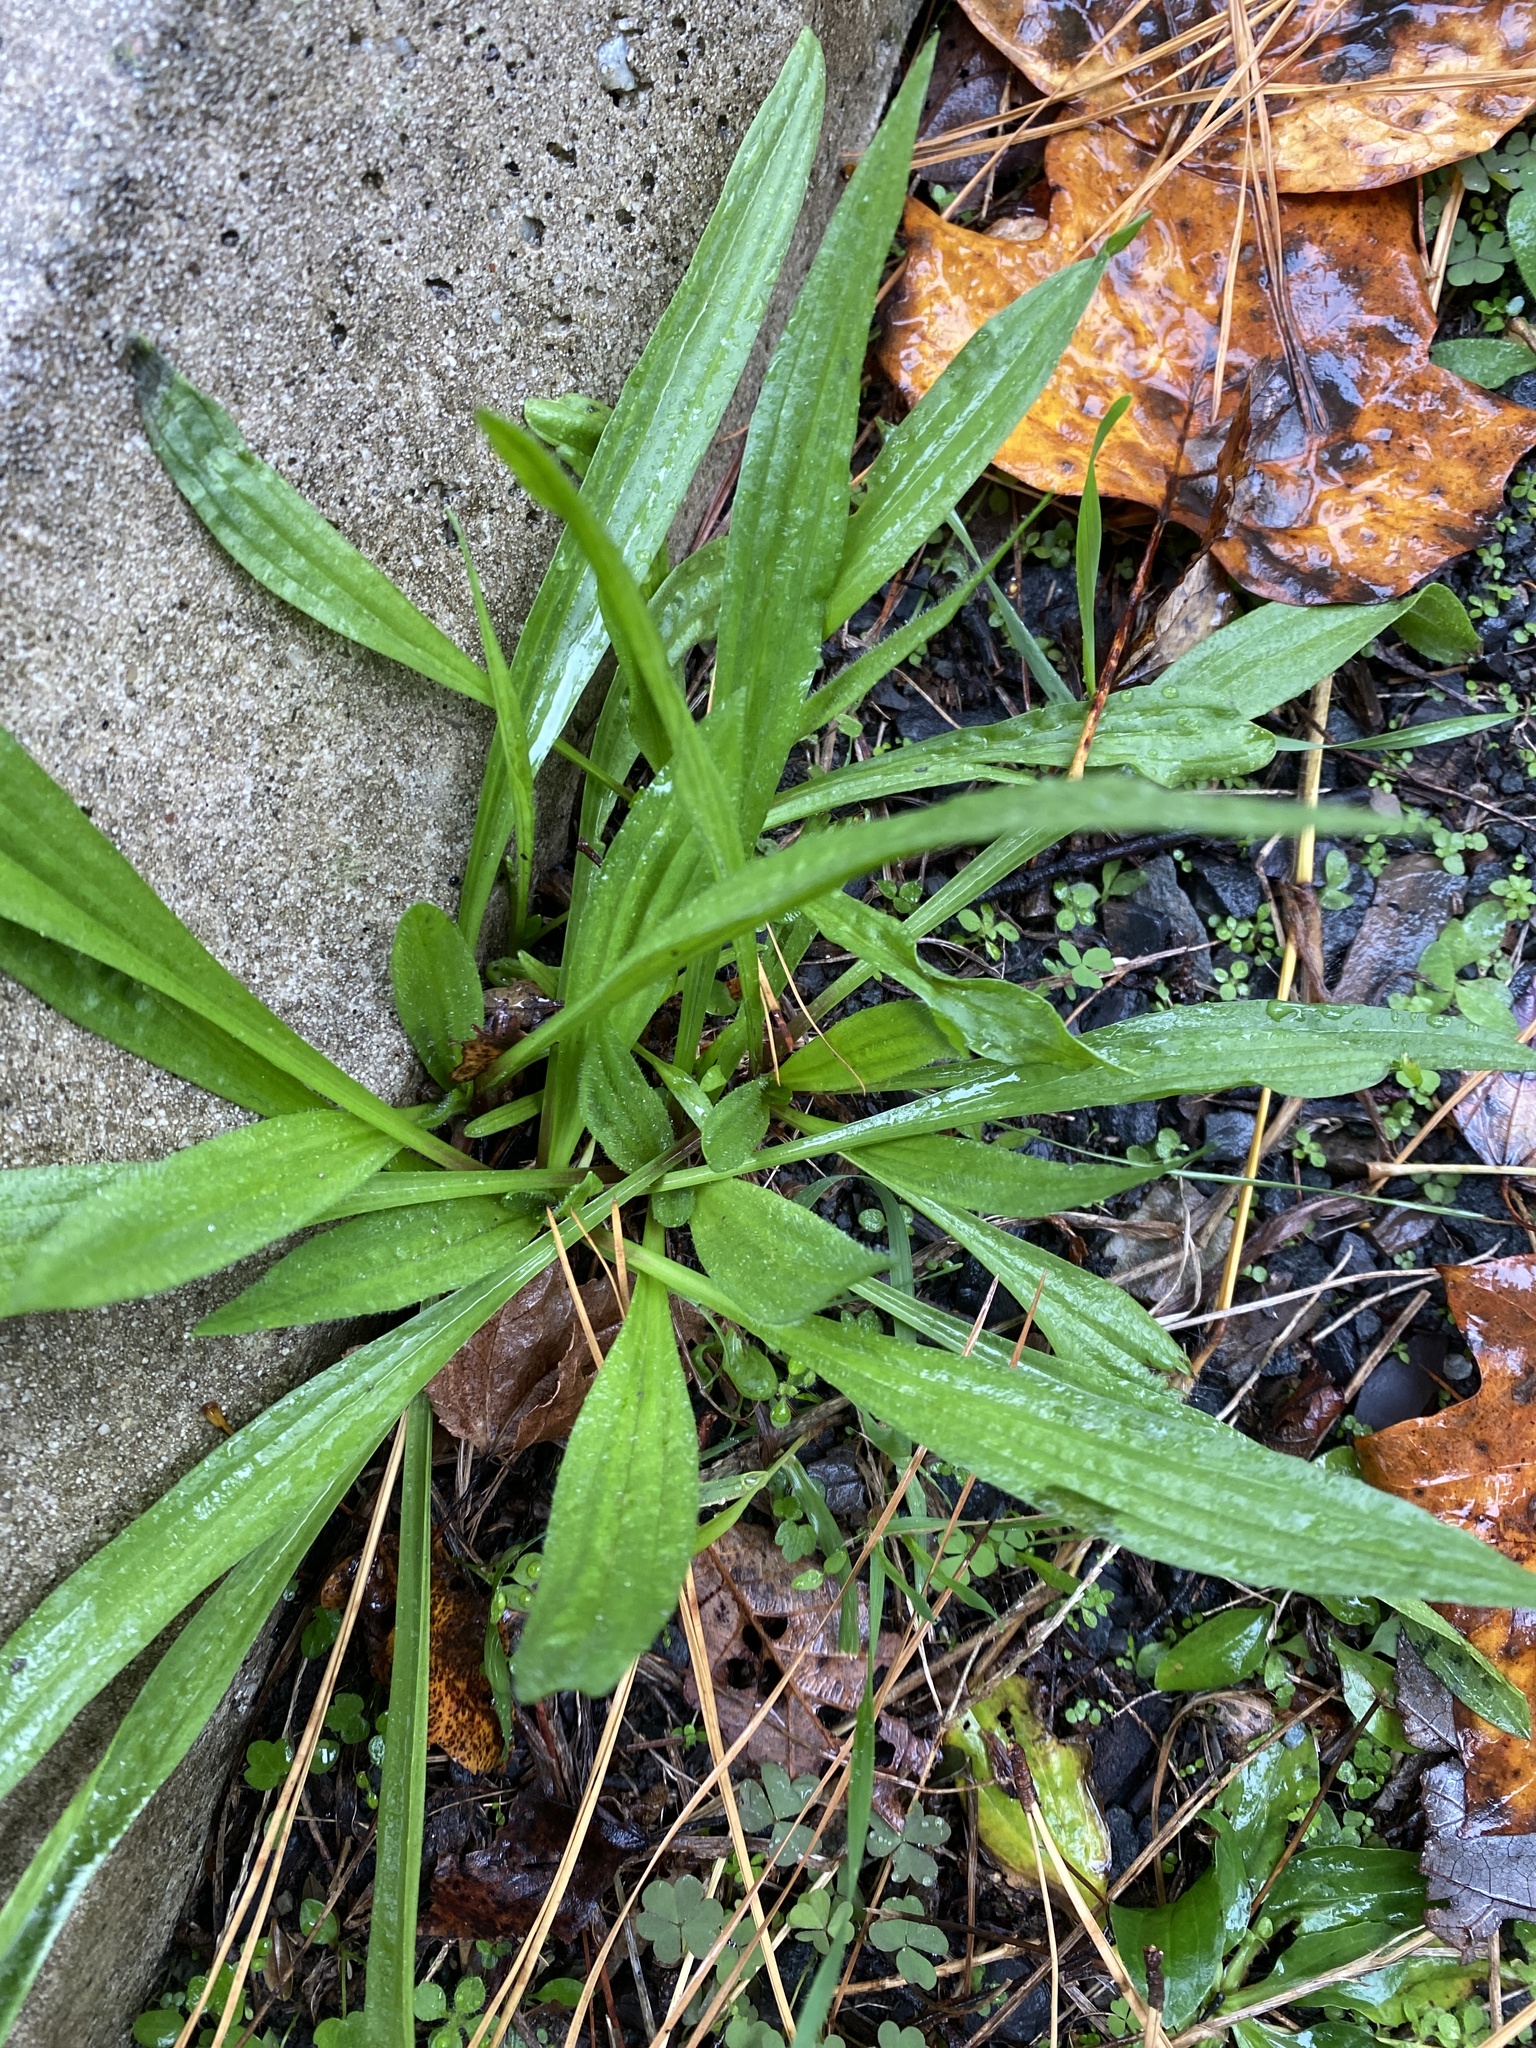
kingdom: Plantae
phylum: Tracheophyta
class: Magnoliopsida
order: Lamiales
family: Plantaginaceae
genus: Plantago
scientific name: Plantago lanceolata
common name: Ribwort plantain
